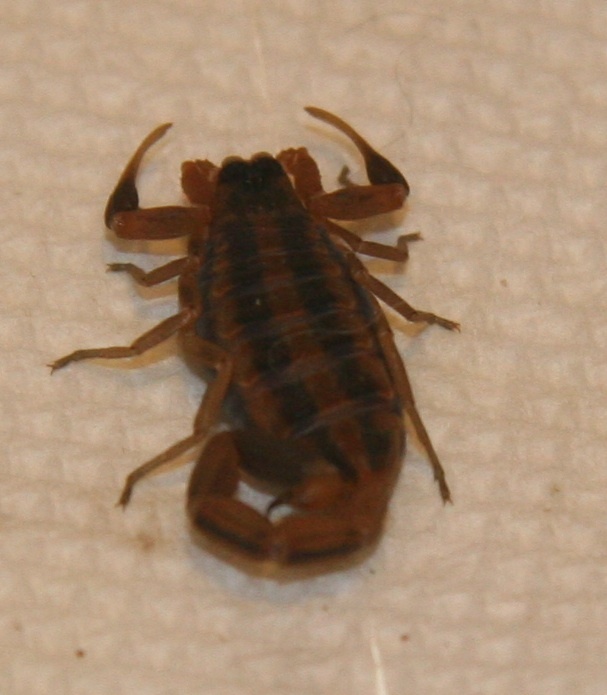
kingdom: Animalia
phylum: Arthropoda
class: Arachnida
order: Scorpiones
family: Buthidae
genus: Centruroides
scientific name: Centruroides vittatus
